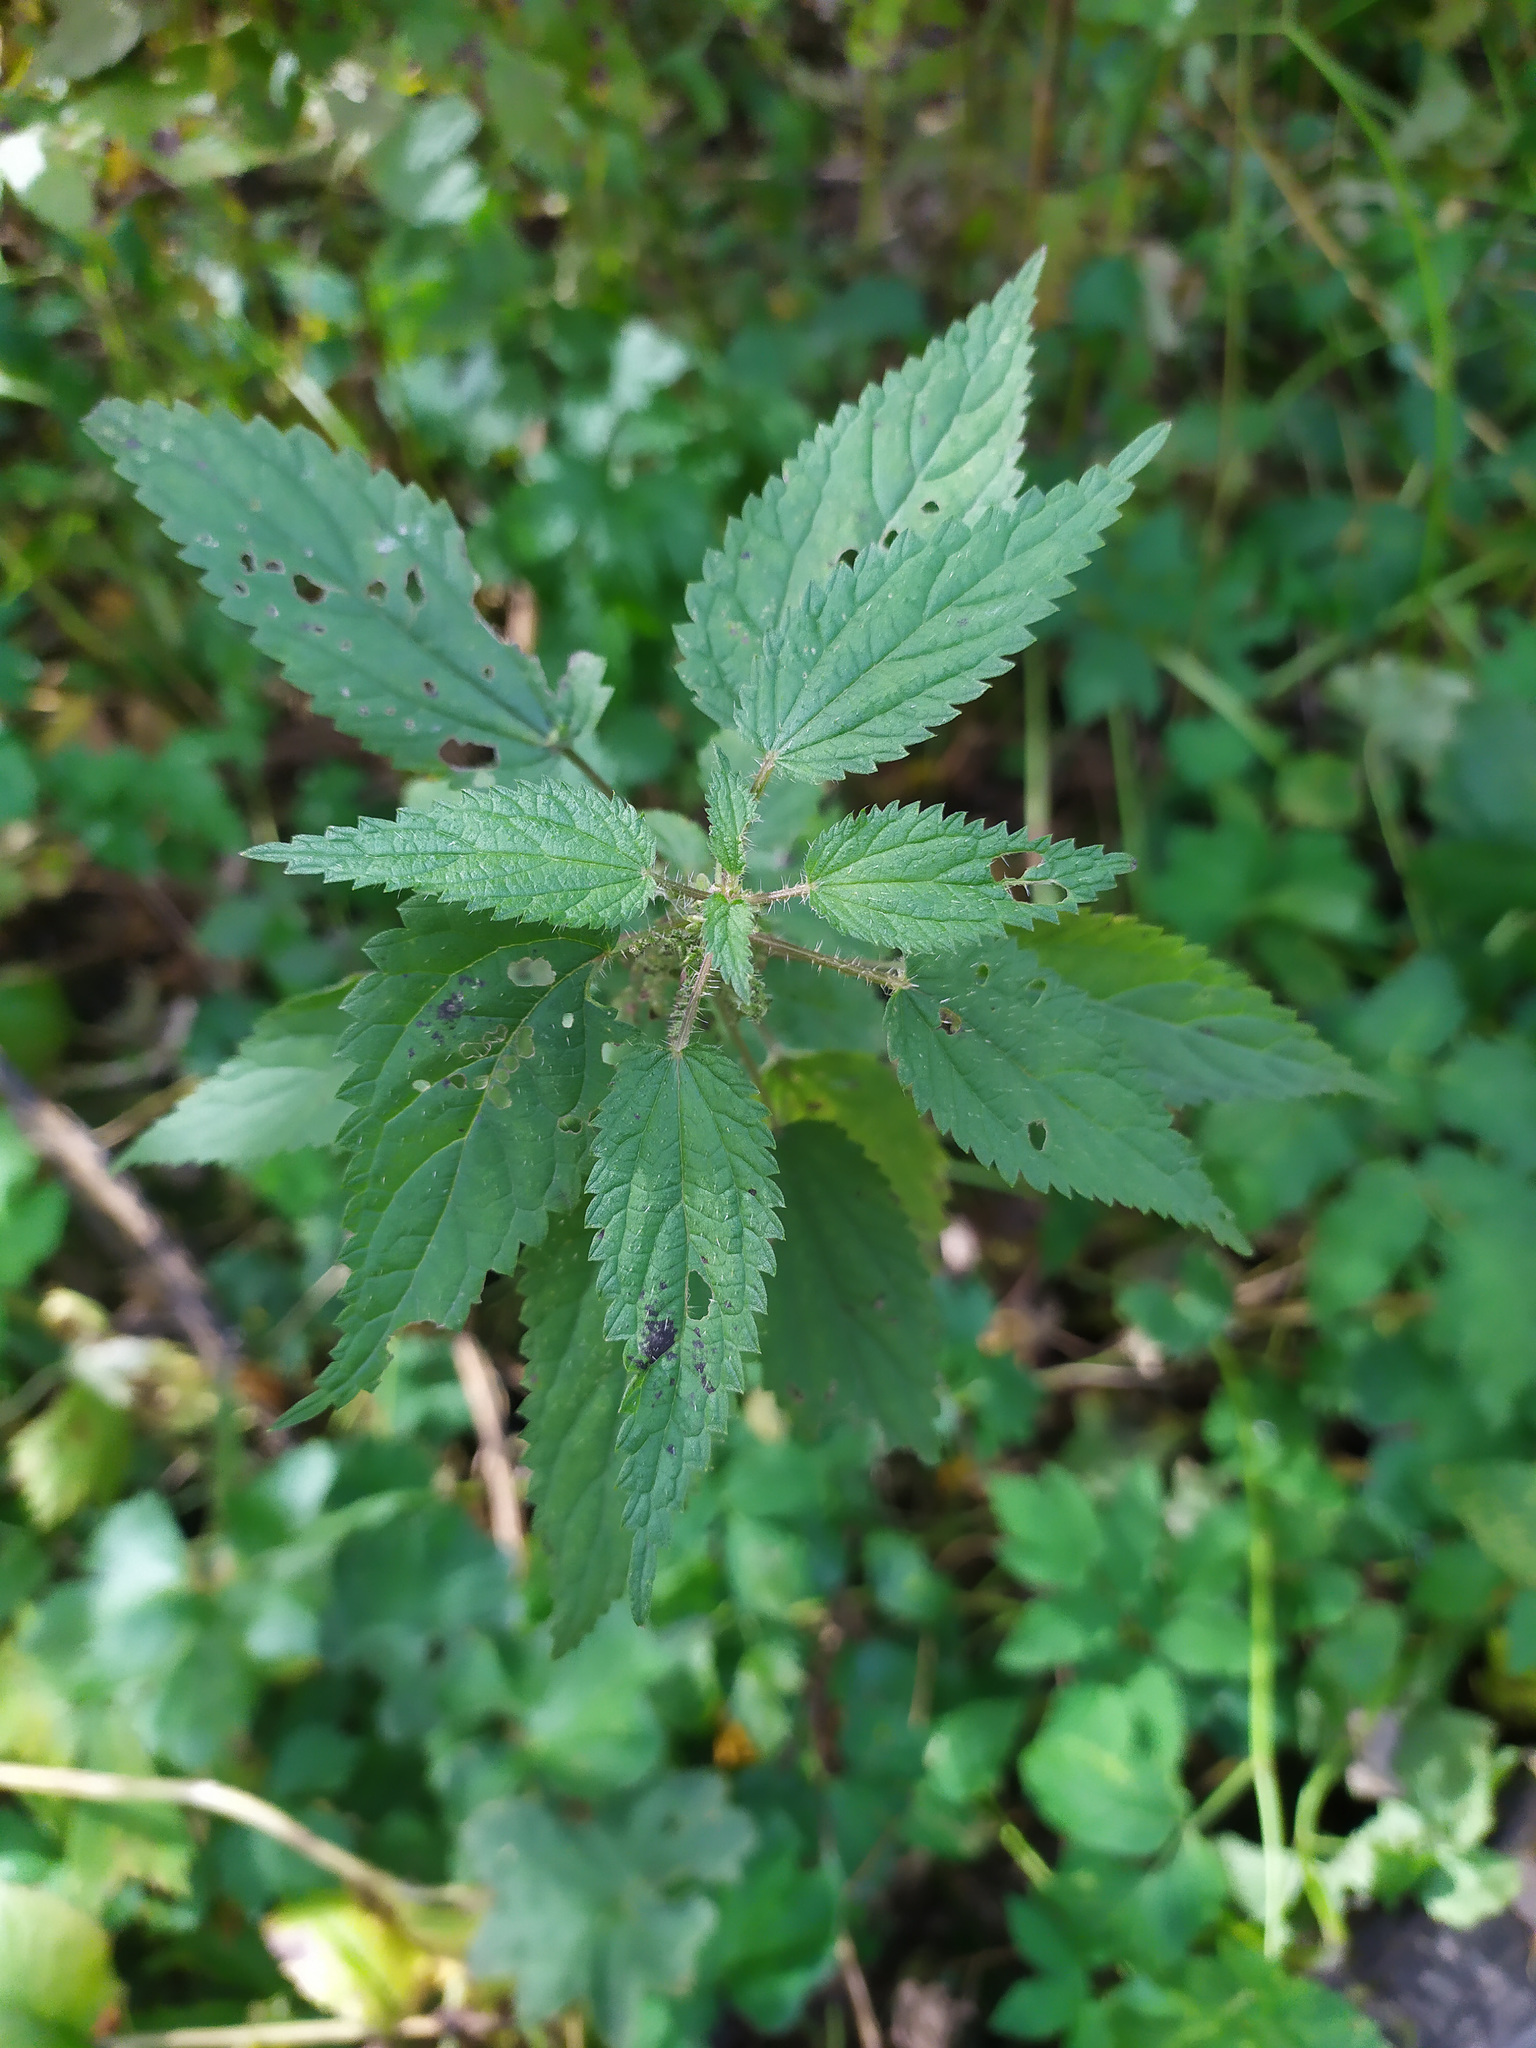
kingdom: Plantae
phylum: Tracheophyta
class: Magnoliopsida
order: Rosales
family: Urticaceae
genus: Urtica
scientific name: Urtica dioica
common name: Common nettle
